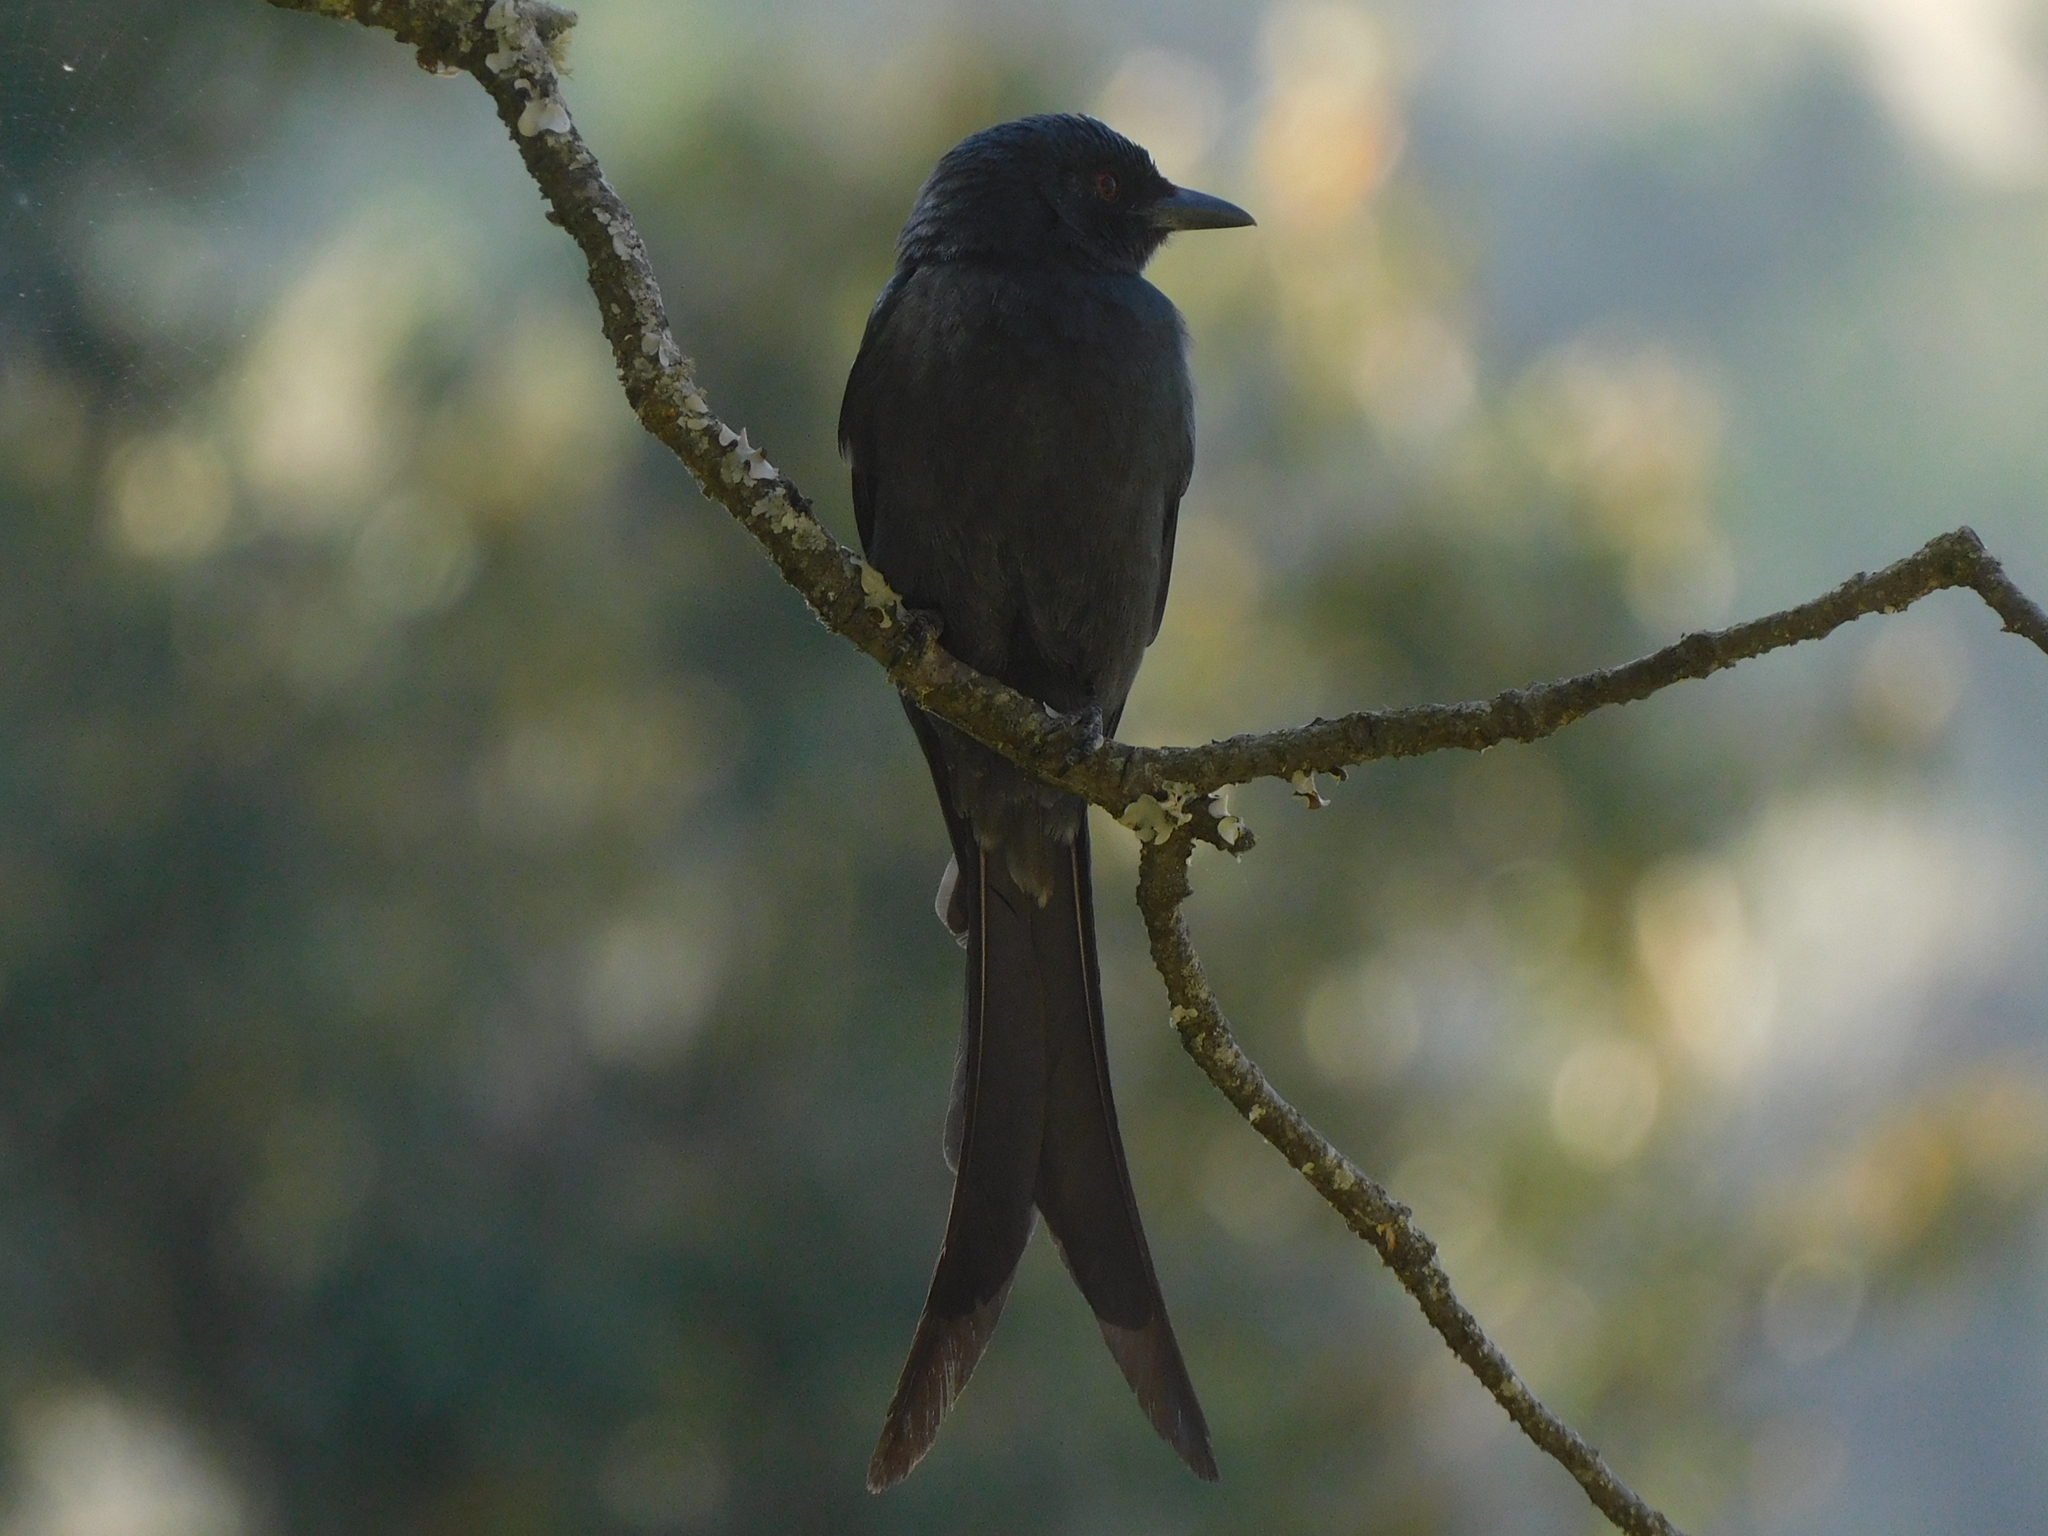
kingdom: Animalia
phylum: Chordata
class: Aves
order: Passeriformes
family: Dicruridae
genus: Dicrurus
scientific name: Dicrurus leucophaeus
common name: Ashy drongo
